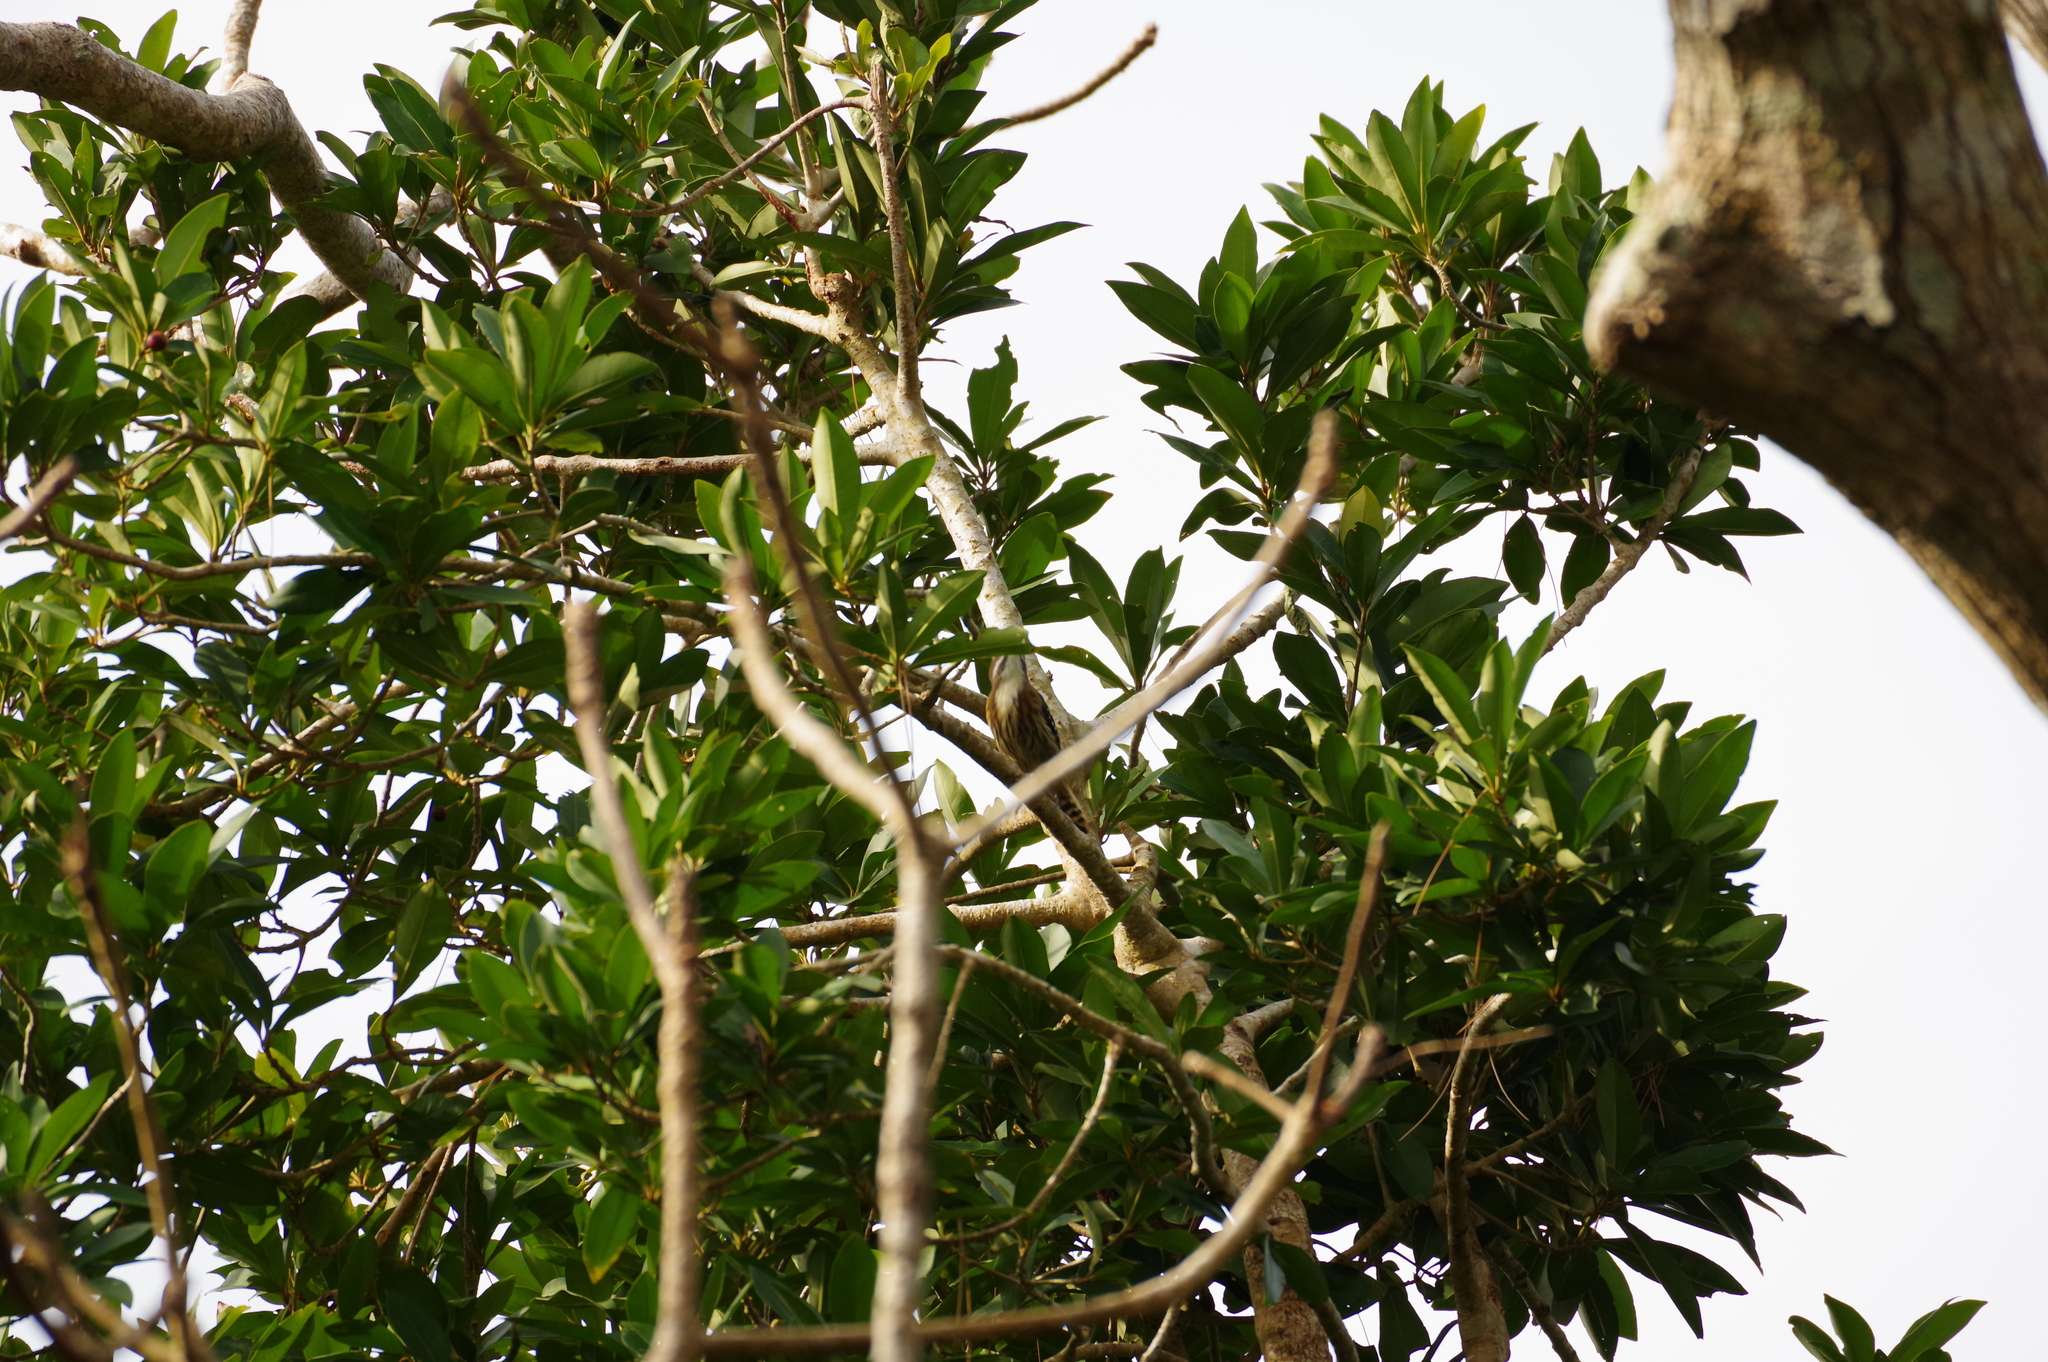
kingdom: Animalia
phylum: Chordata
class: Aves
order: Piciformes
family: Picidae
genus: Yungipicus
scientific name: Yungipicus kizuki
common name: Japanese pygmy woodpecker
